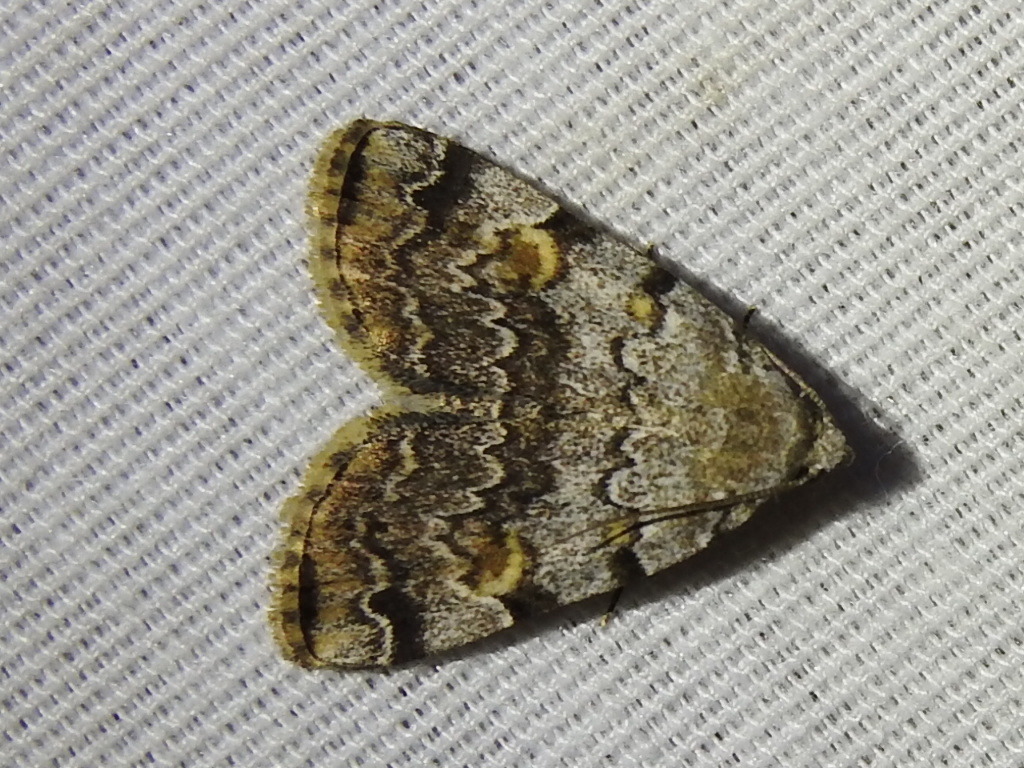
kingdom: Animalia
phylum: Arthropoda
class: Insecta
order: Lepidoptera
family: Erebidae
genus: Idia
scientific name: Idia americalis
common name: American idia moth
